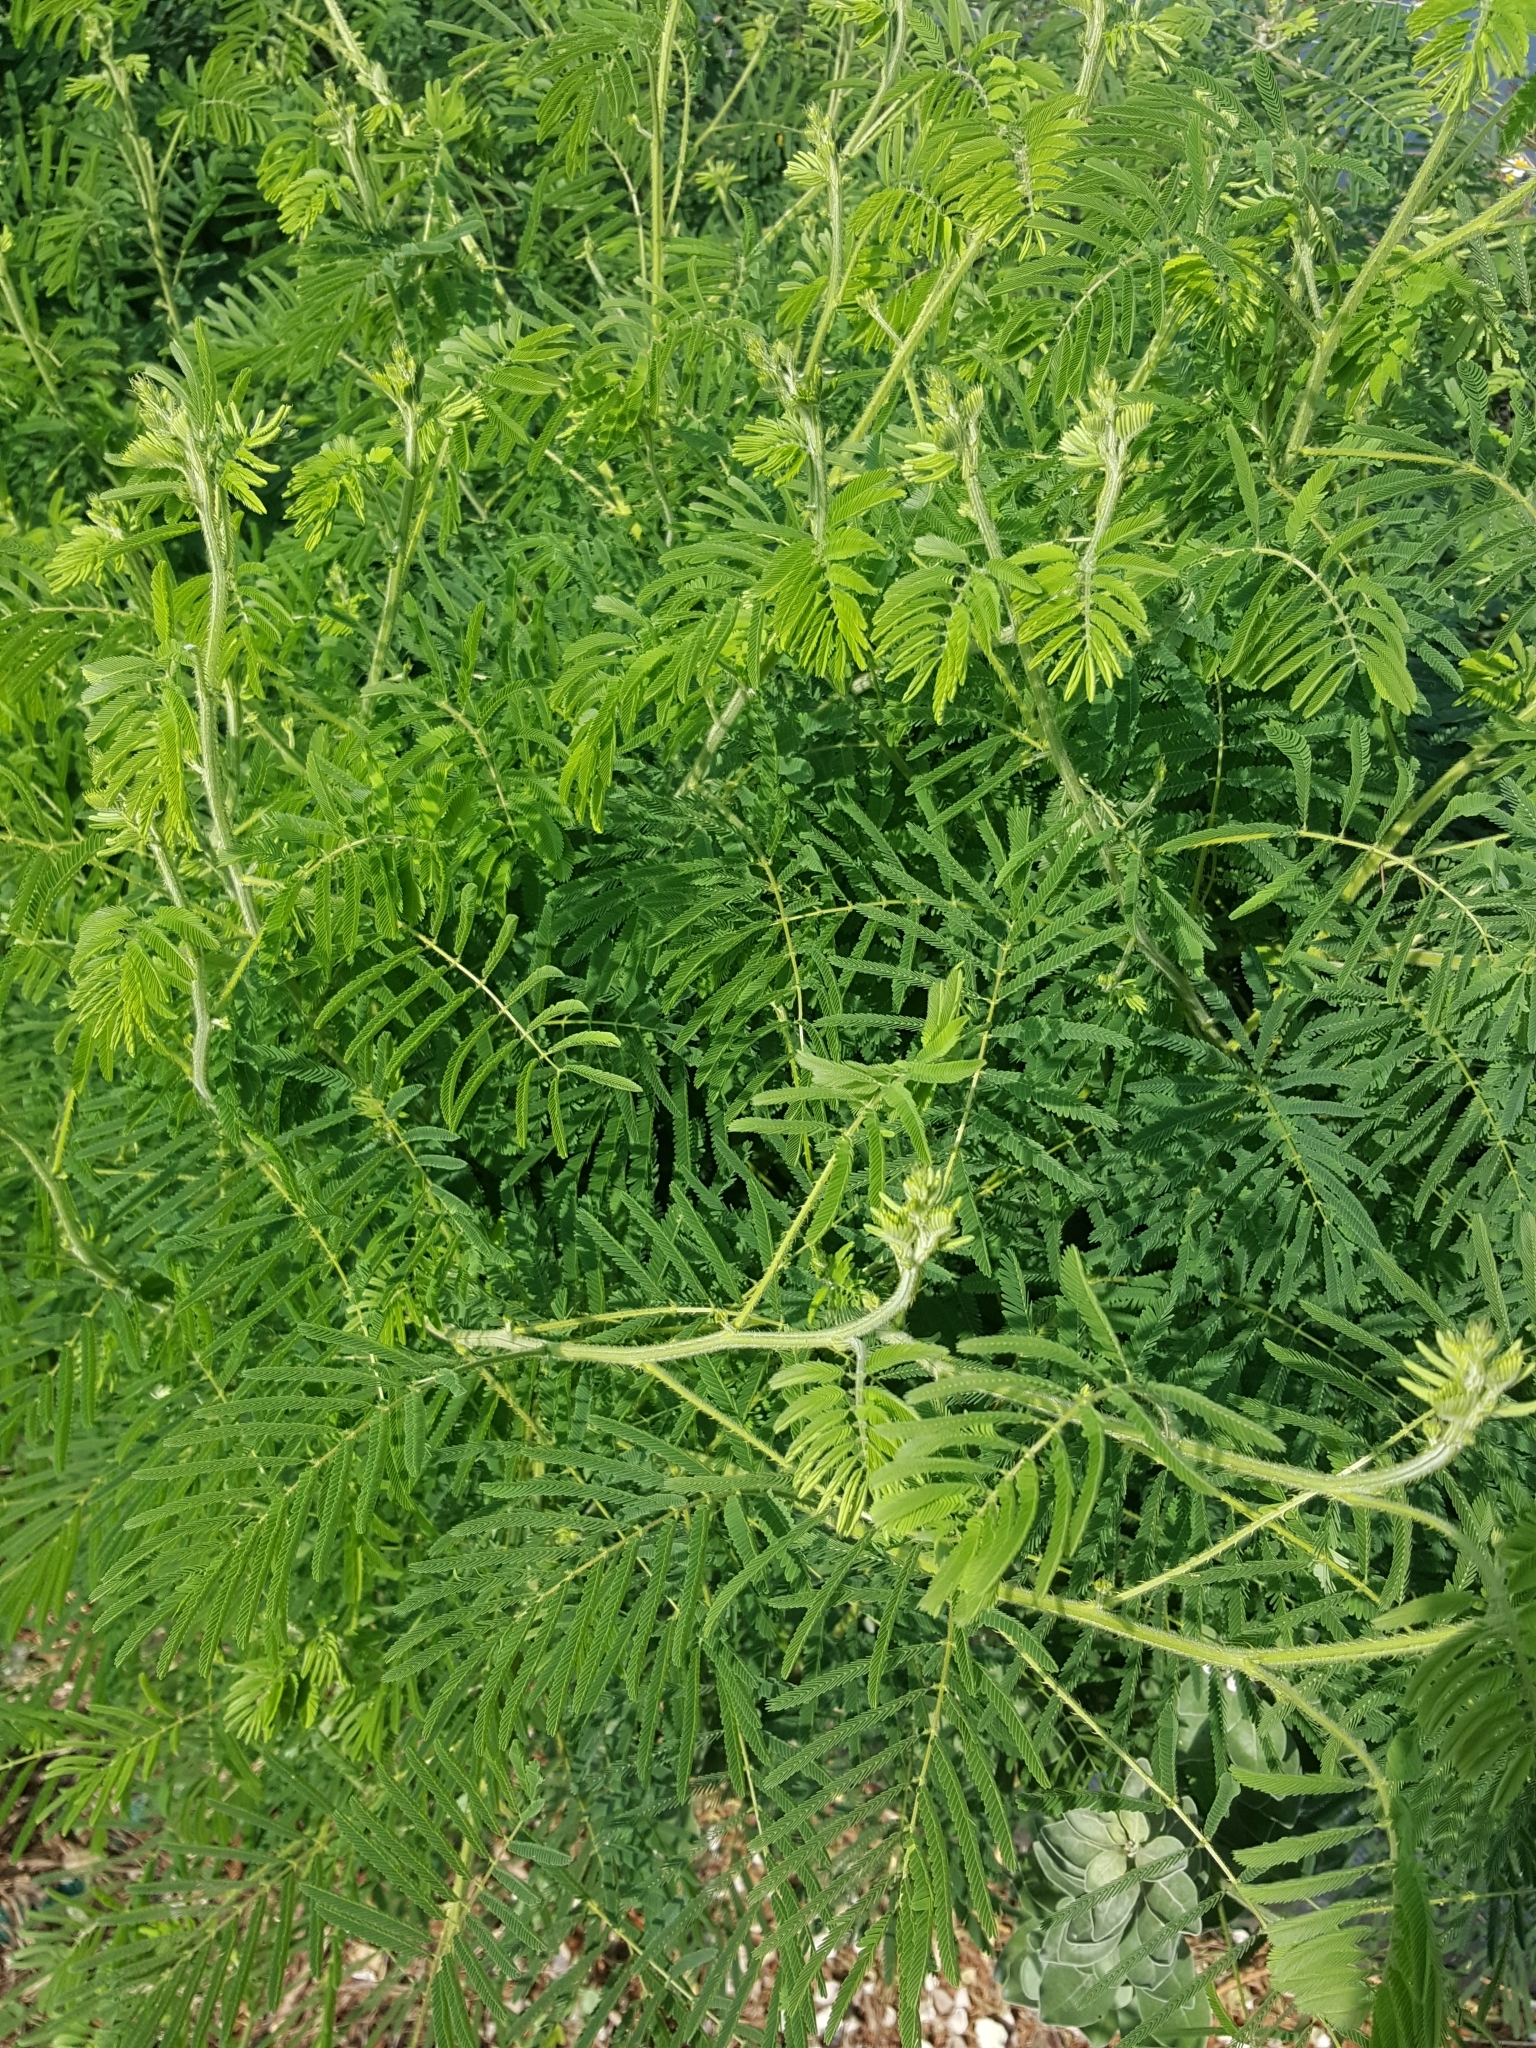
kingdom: Plantae
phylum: Tracheophyta
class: Magnoliopsida
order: Fabales
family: Fabaceae
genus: Mimosa
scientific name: Mimosa diplotricha
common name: Giant sensitive-plant
